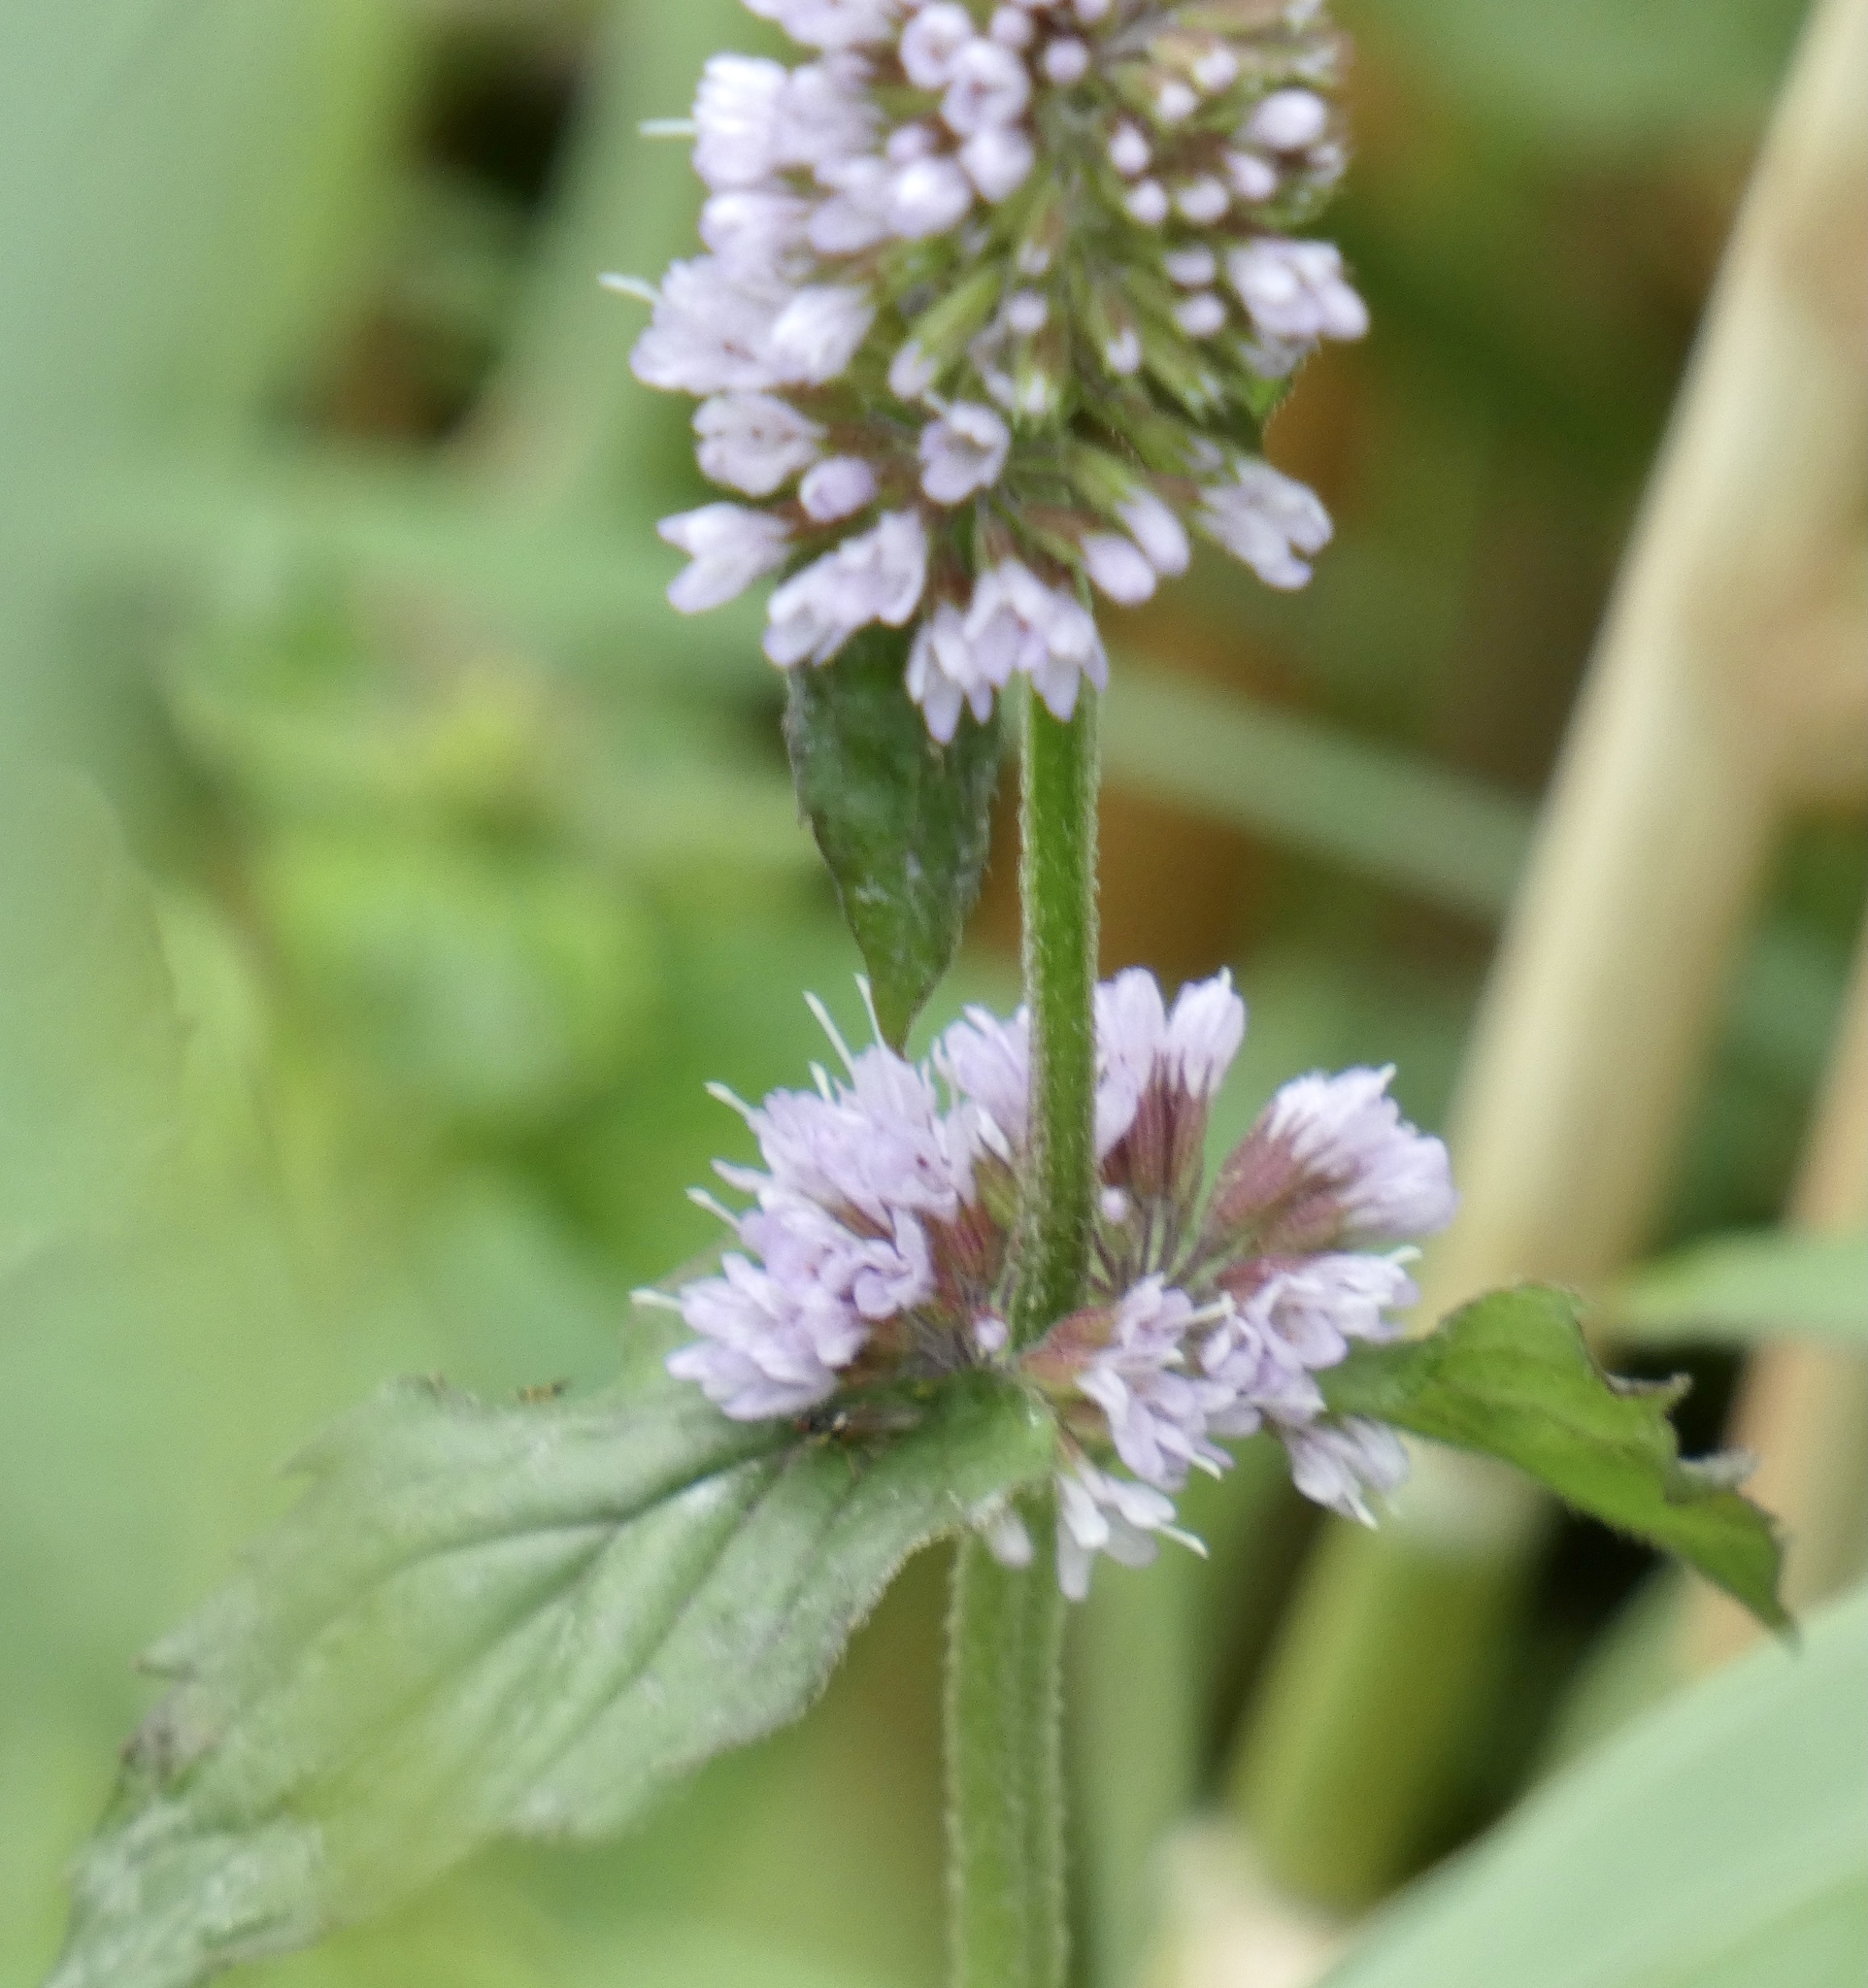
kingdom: Plantae
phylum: Tracheophyta
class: Magnoliopsida
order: Lamiales
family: Lamiaceae
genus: Mentha
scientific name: Mentha aquatica
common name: Water mint
